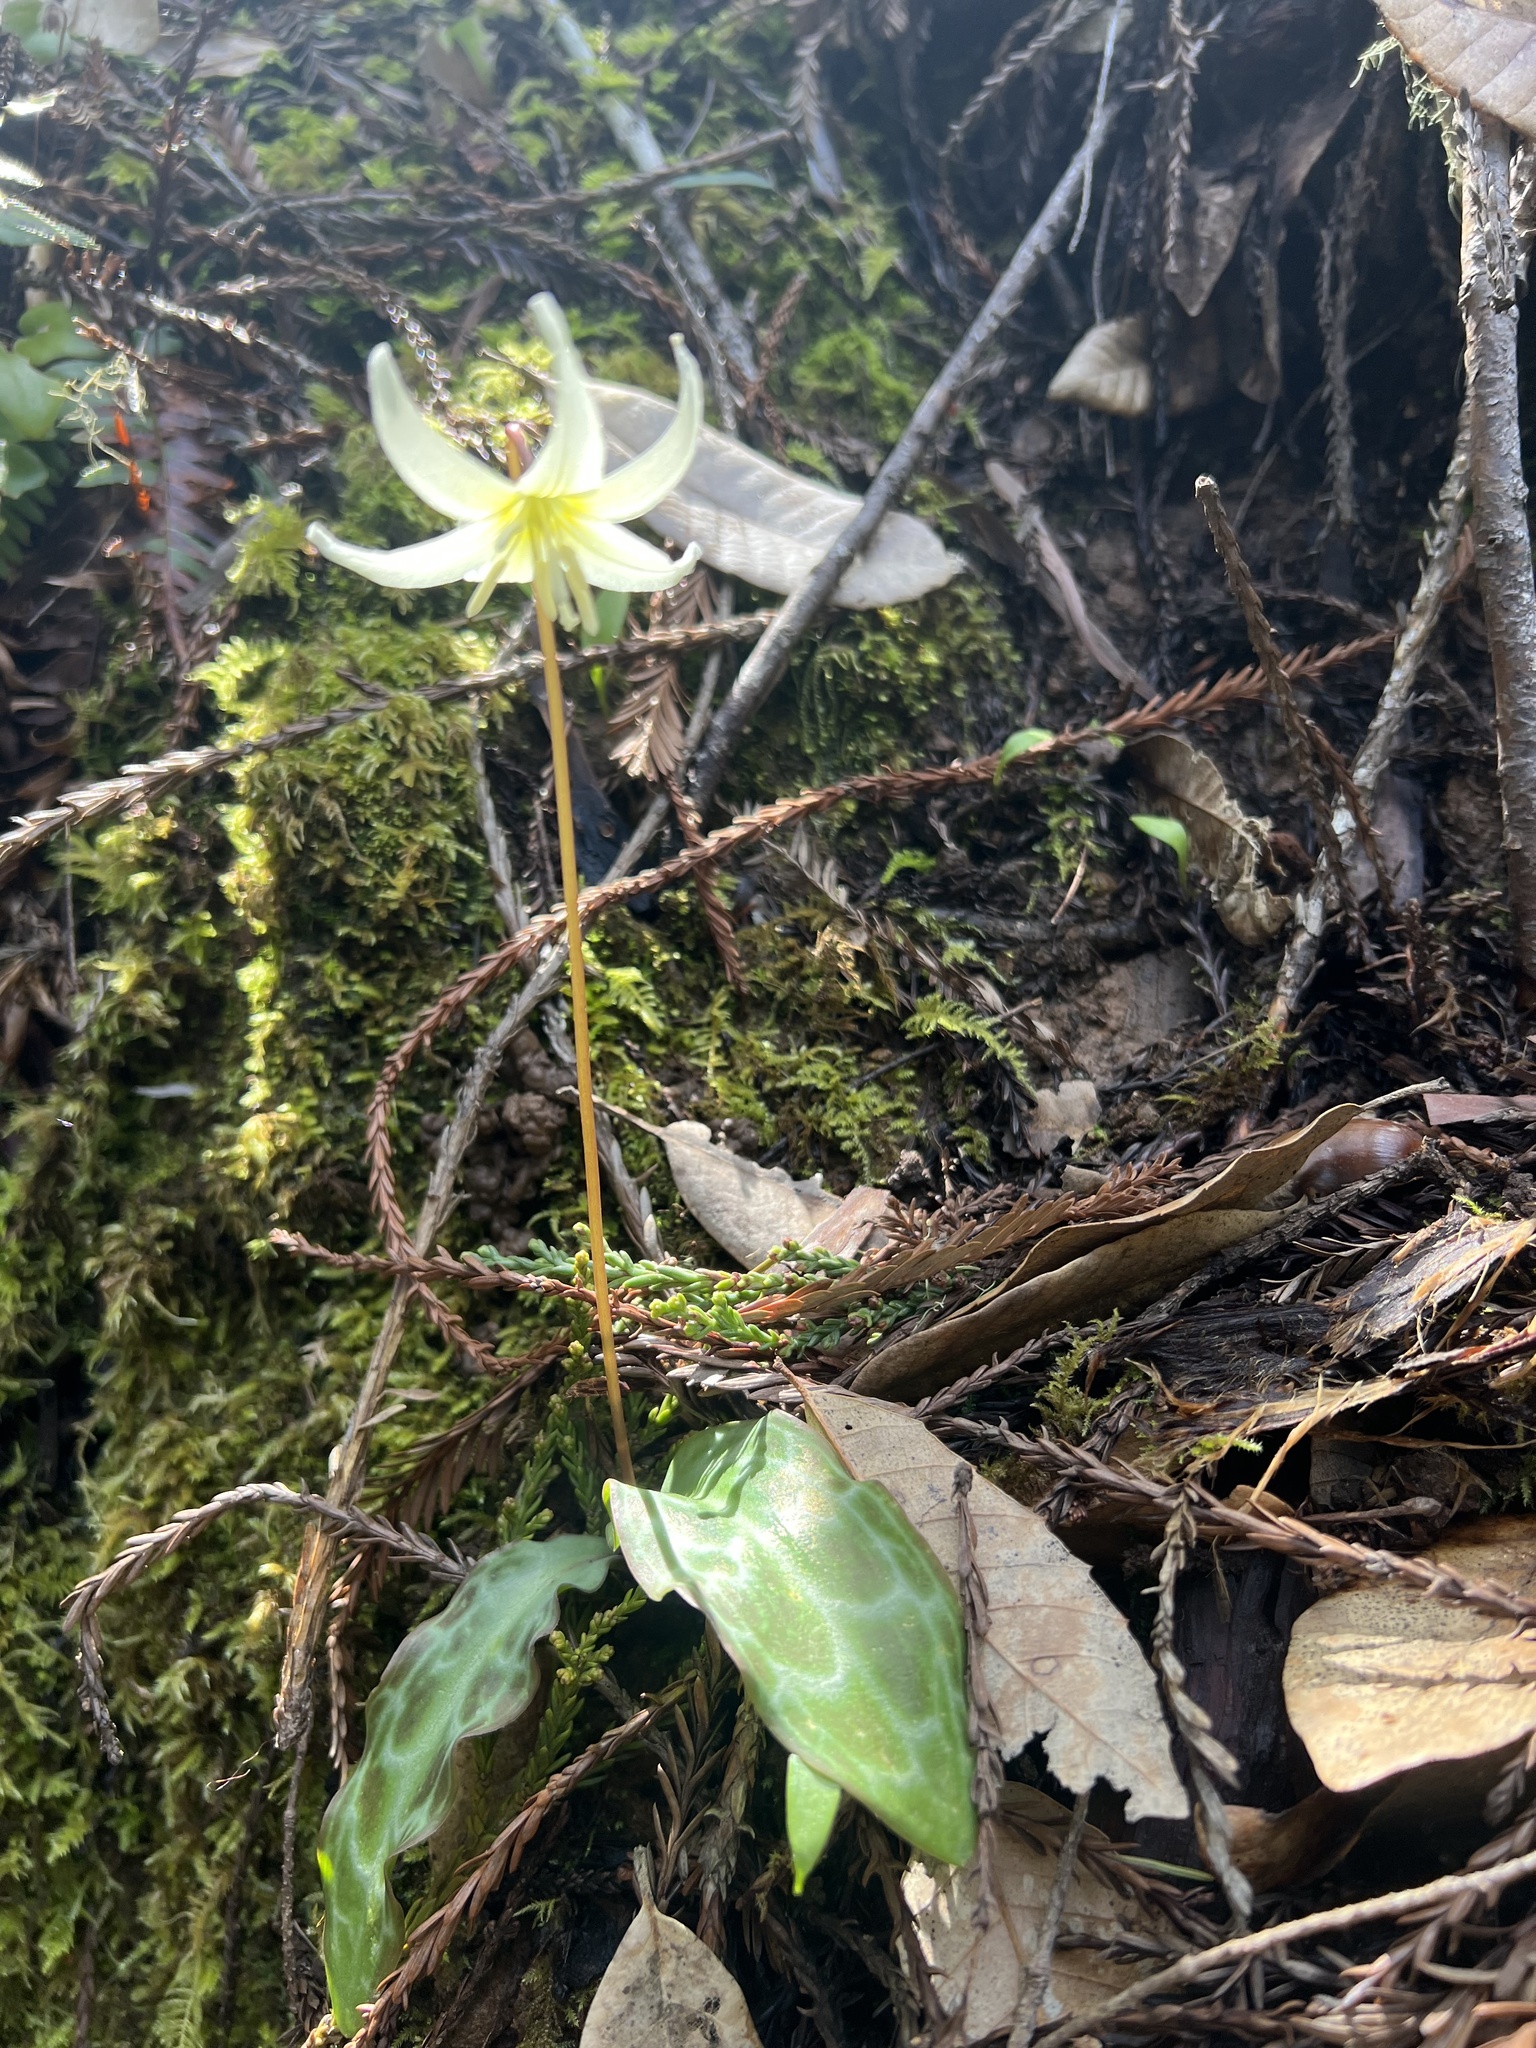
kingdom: Plantae
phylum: Tracheophyta
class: Liliopsida
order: Liliales
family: Liliaceae
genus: Erythronium
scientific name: Erythronium californicum
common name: Fawn-lily
